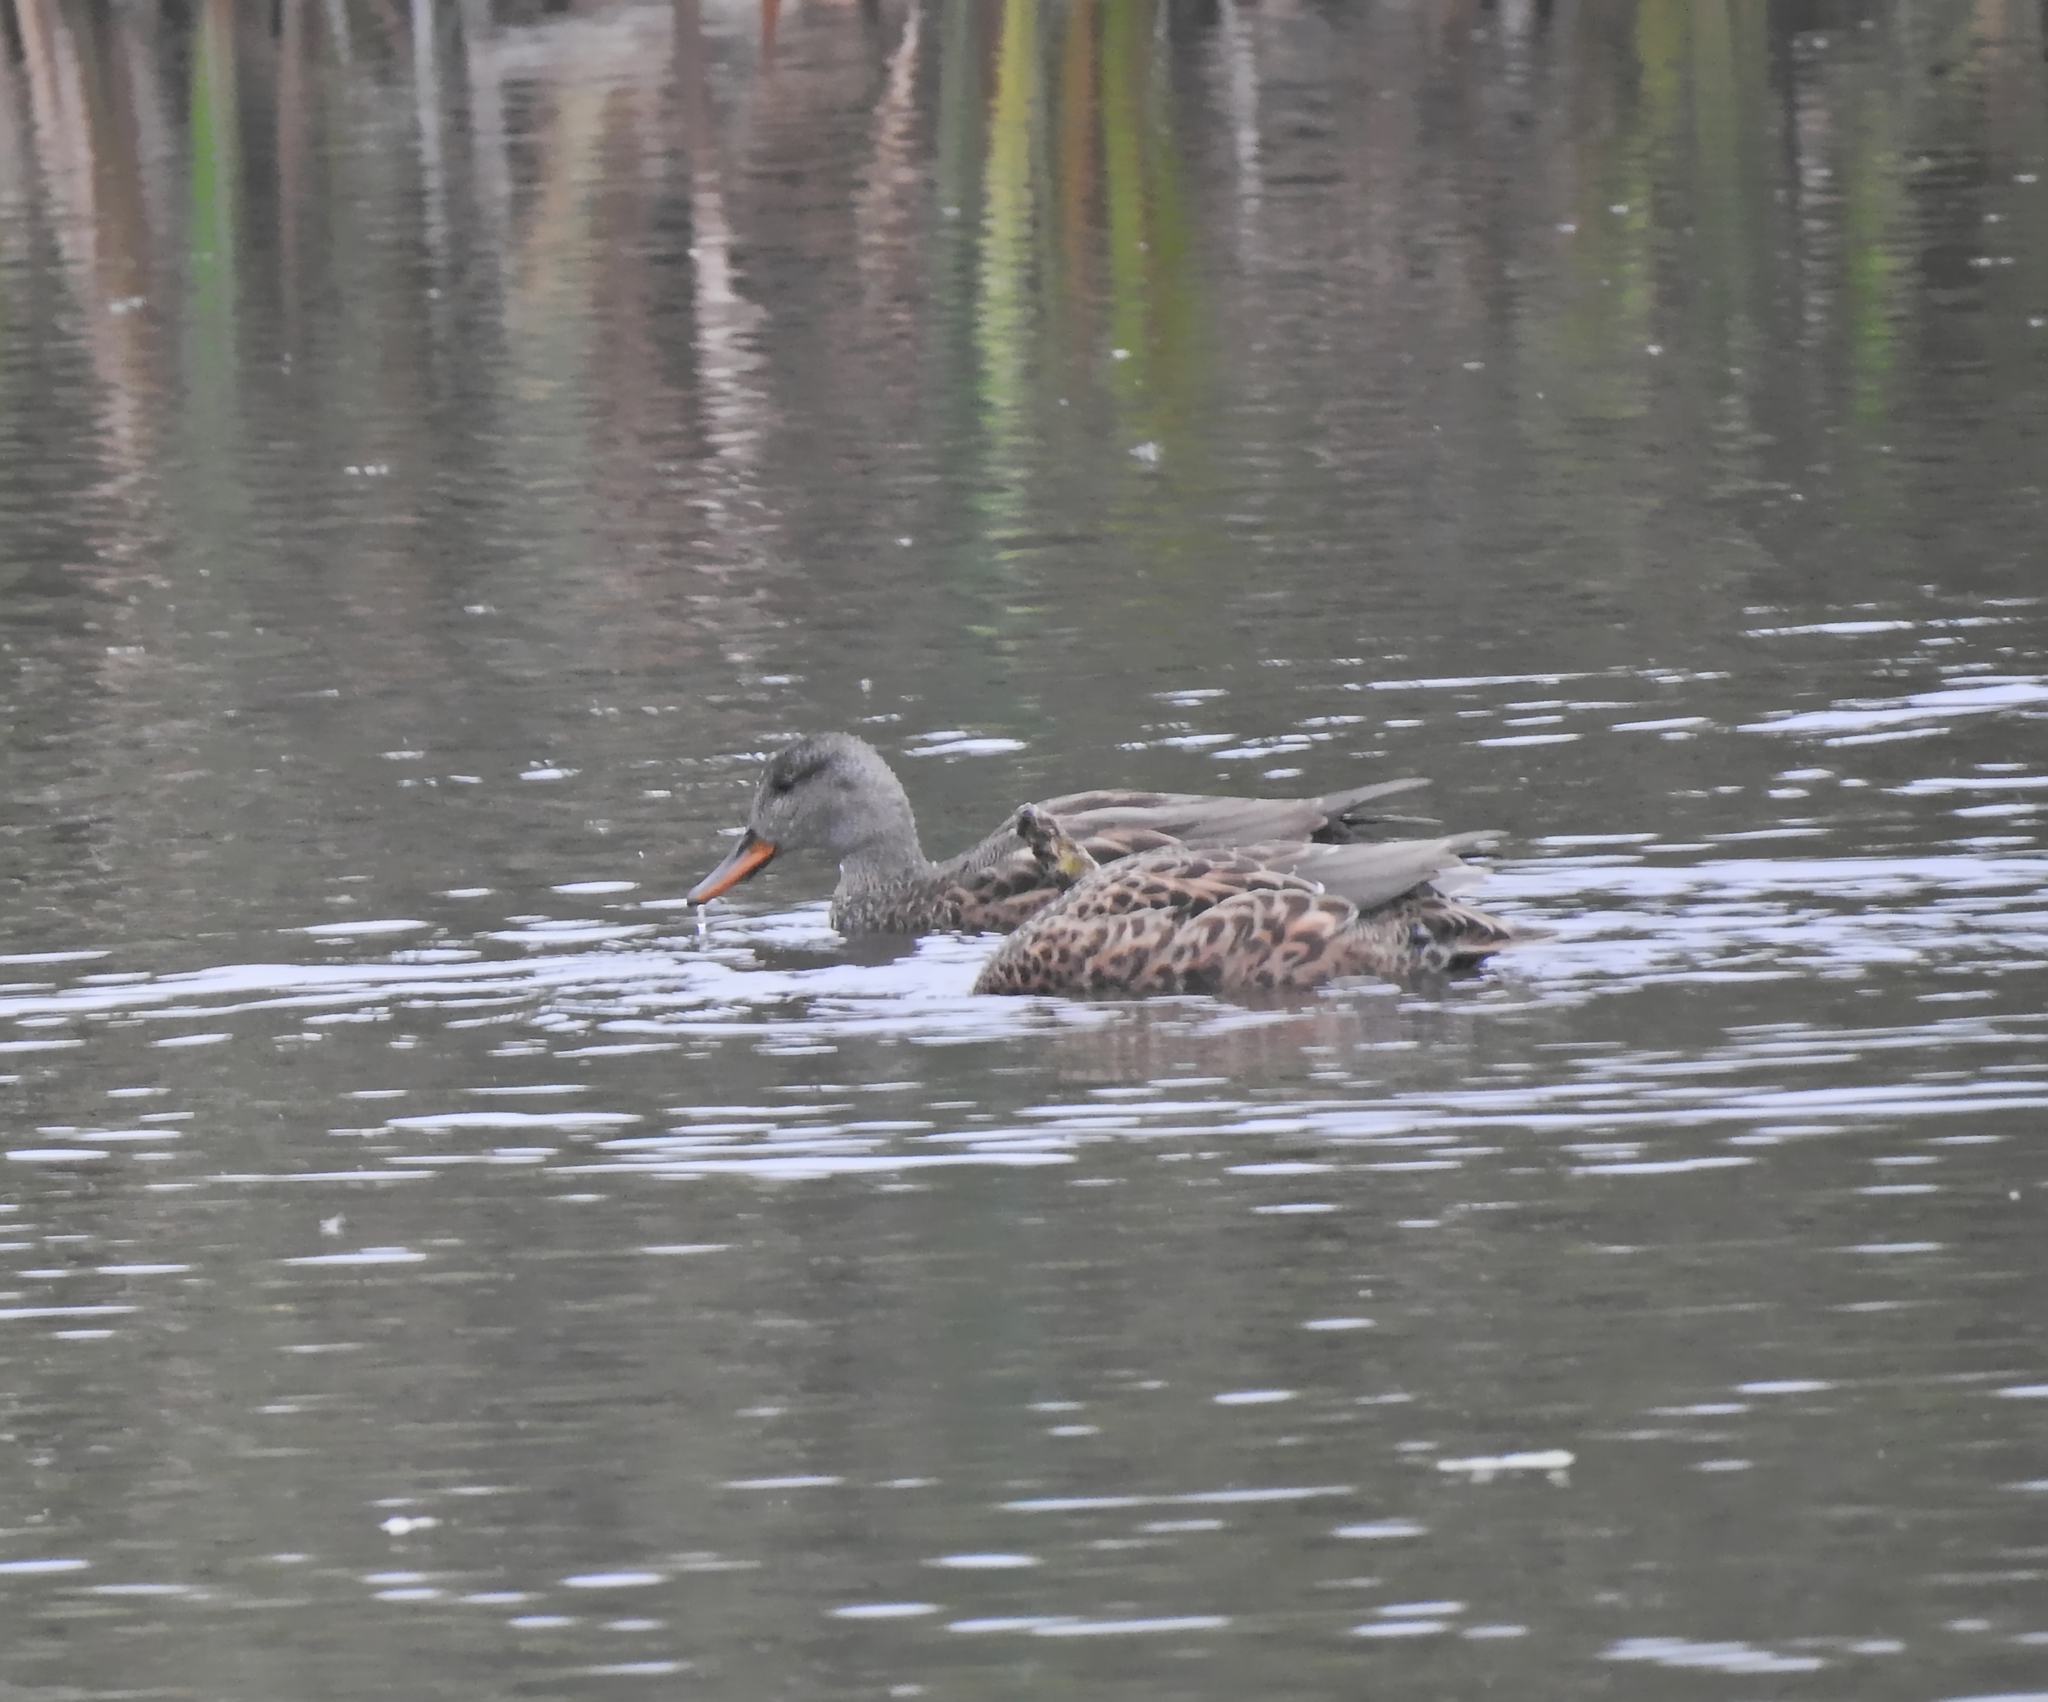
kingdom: Animalia
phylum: Chordata
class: Aves
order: Anseriformes
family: Anatidae
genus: Mareca
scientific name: Mareca strepera
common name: Gadwall
